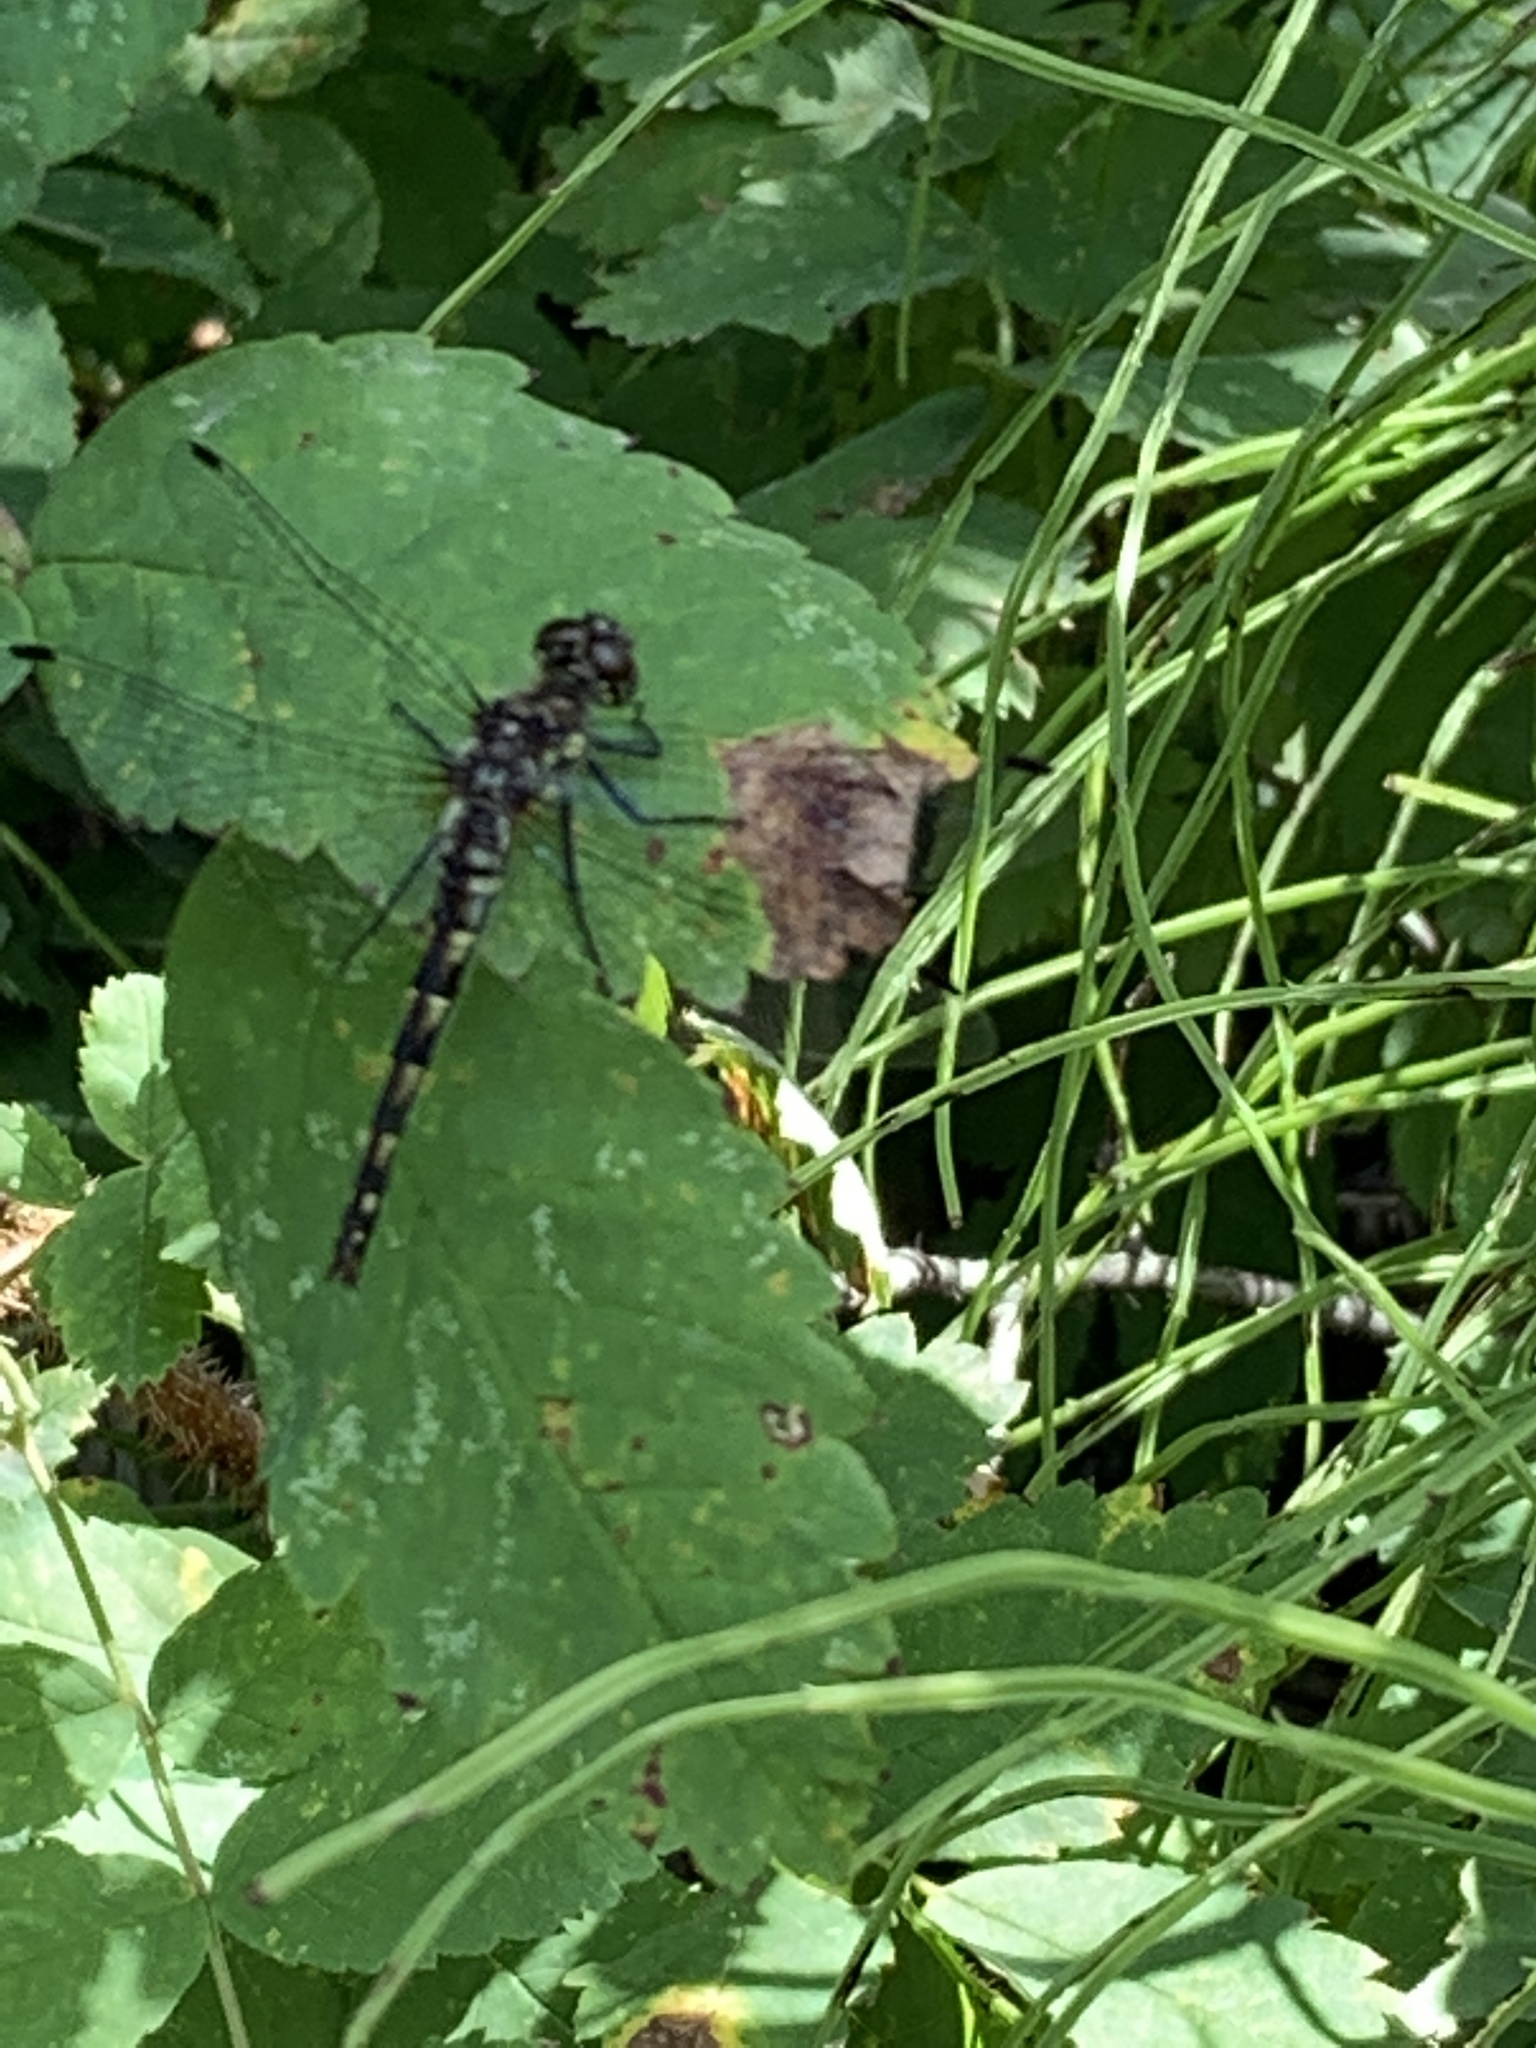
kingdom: Animalia
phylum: Arthropoda
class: Insecta
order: Odonata
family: Libellulidae
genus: Sympetrum
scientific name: Sympetrum danae
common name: Black darter
